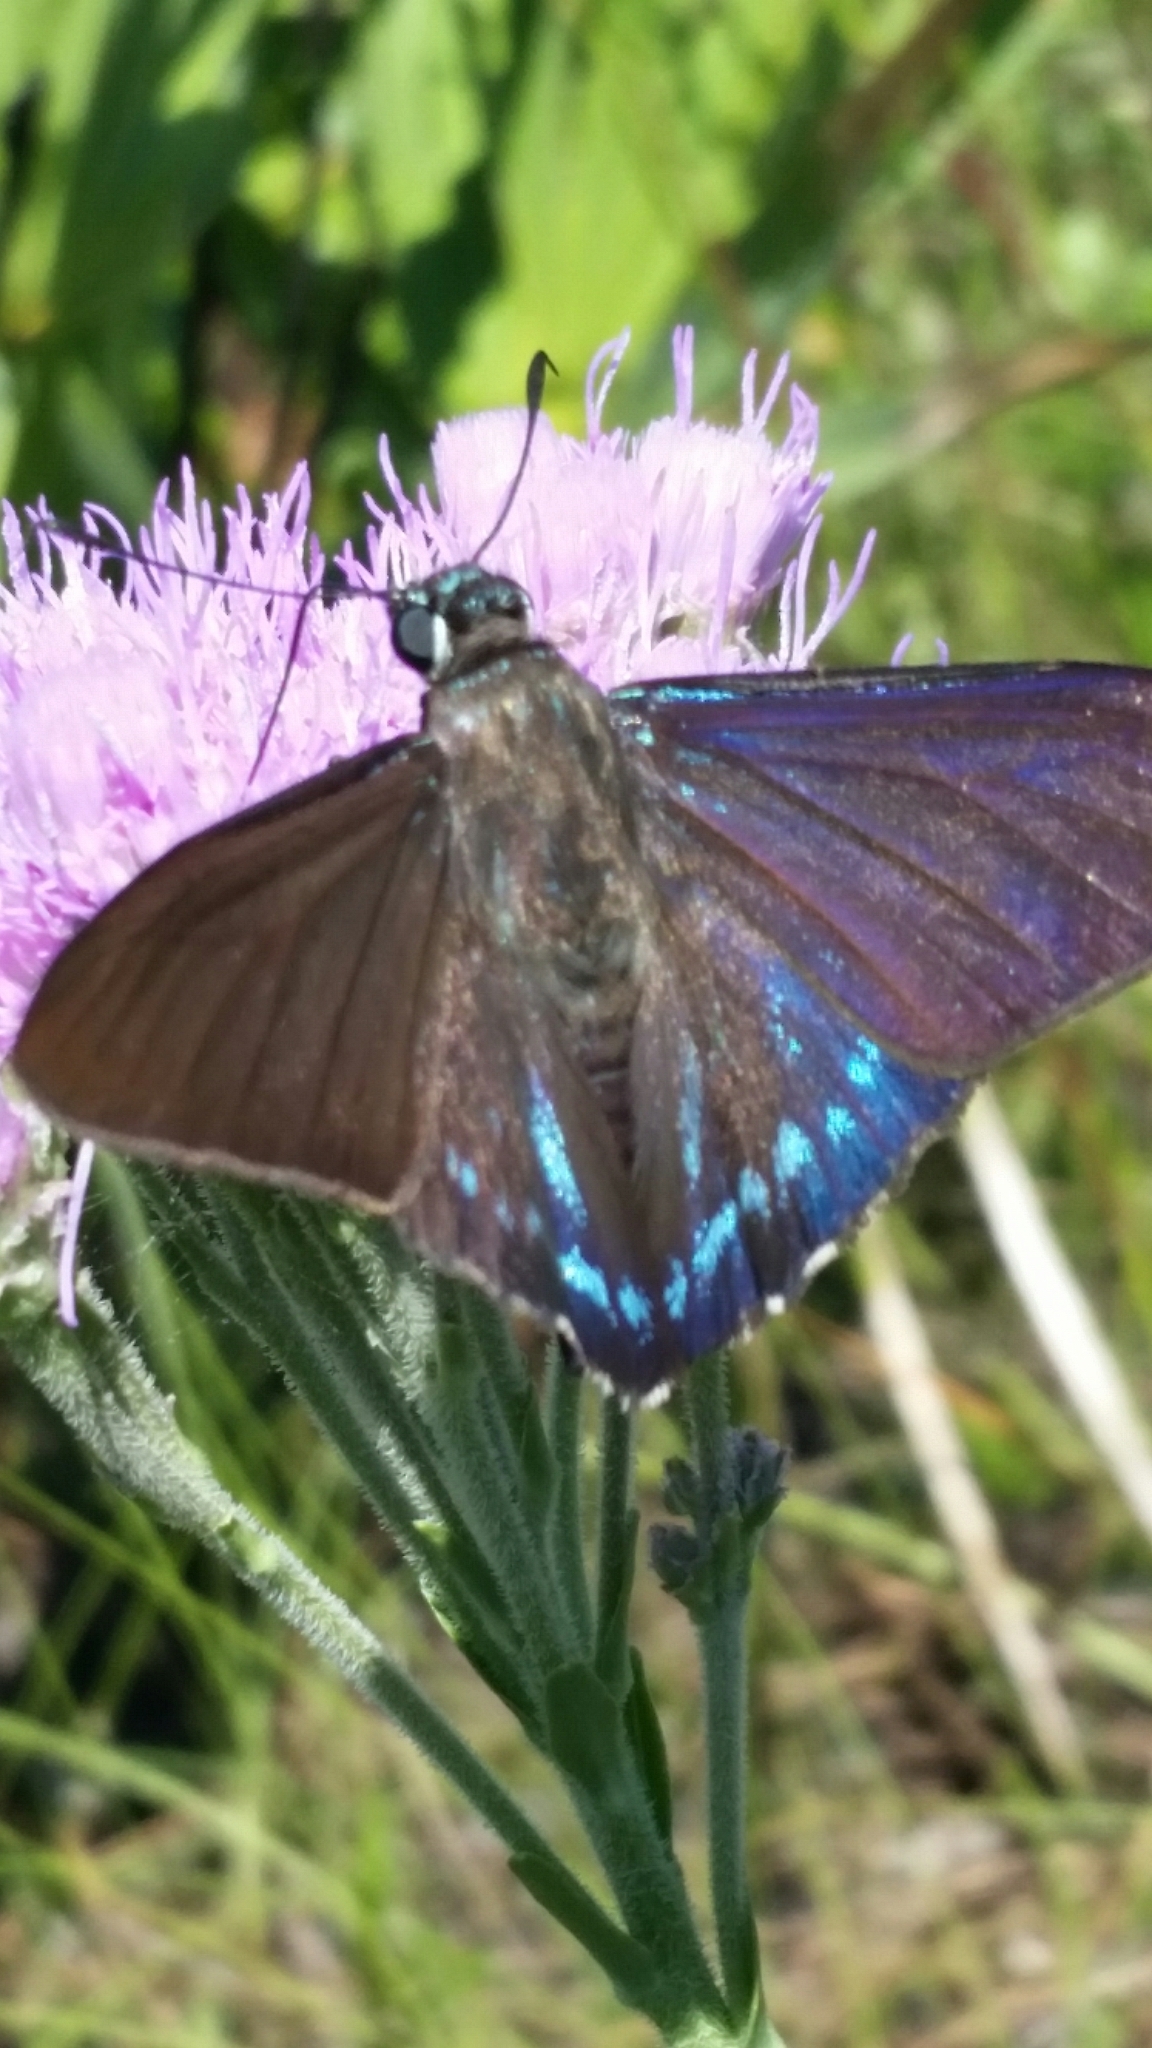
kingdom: Animalia
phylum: Arthropoda
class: Insecta
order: Lepidoptera
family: Hesperiidae
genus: Phocides
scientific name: Phocides pigmalion
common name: Mangrove skipper
